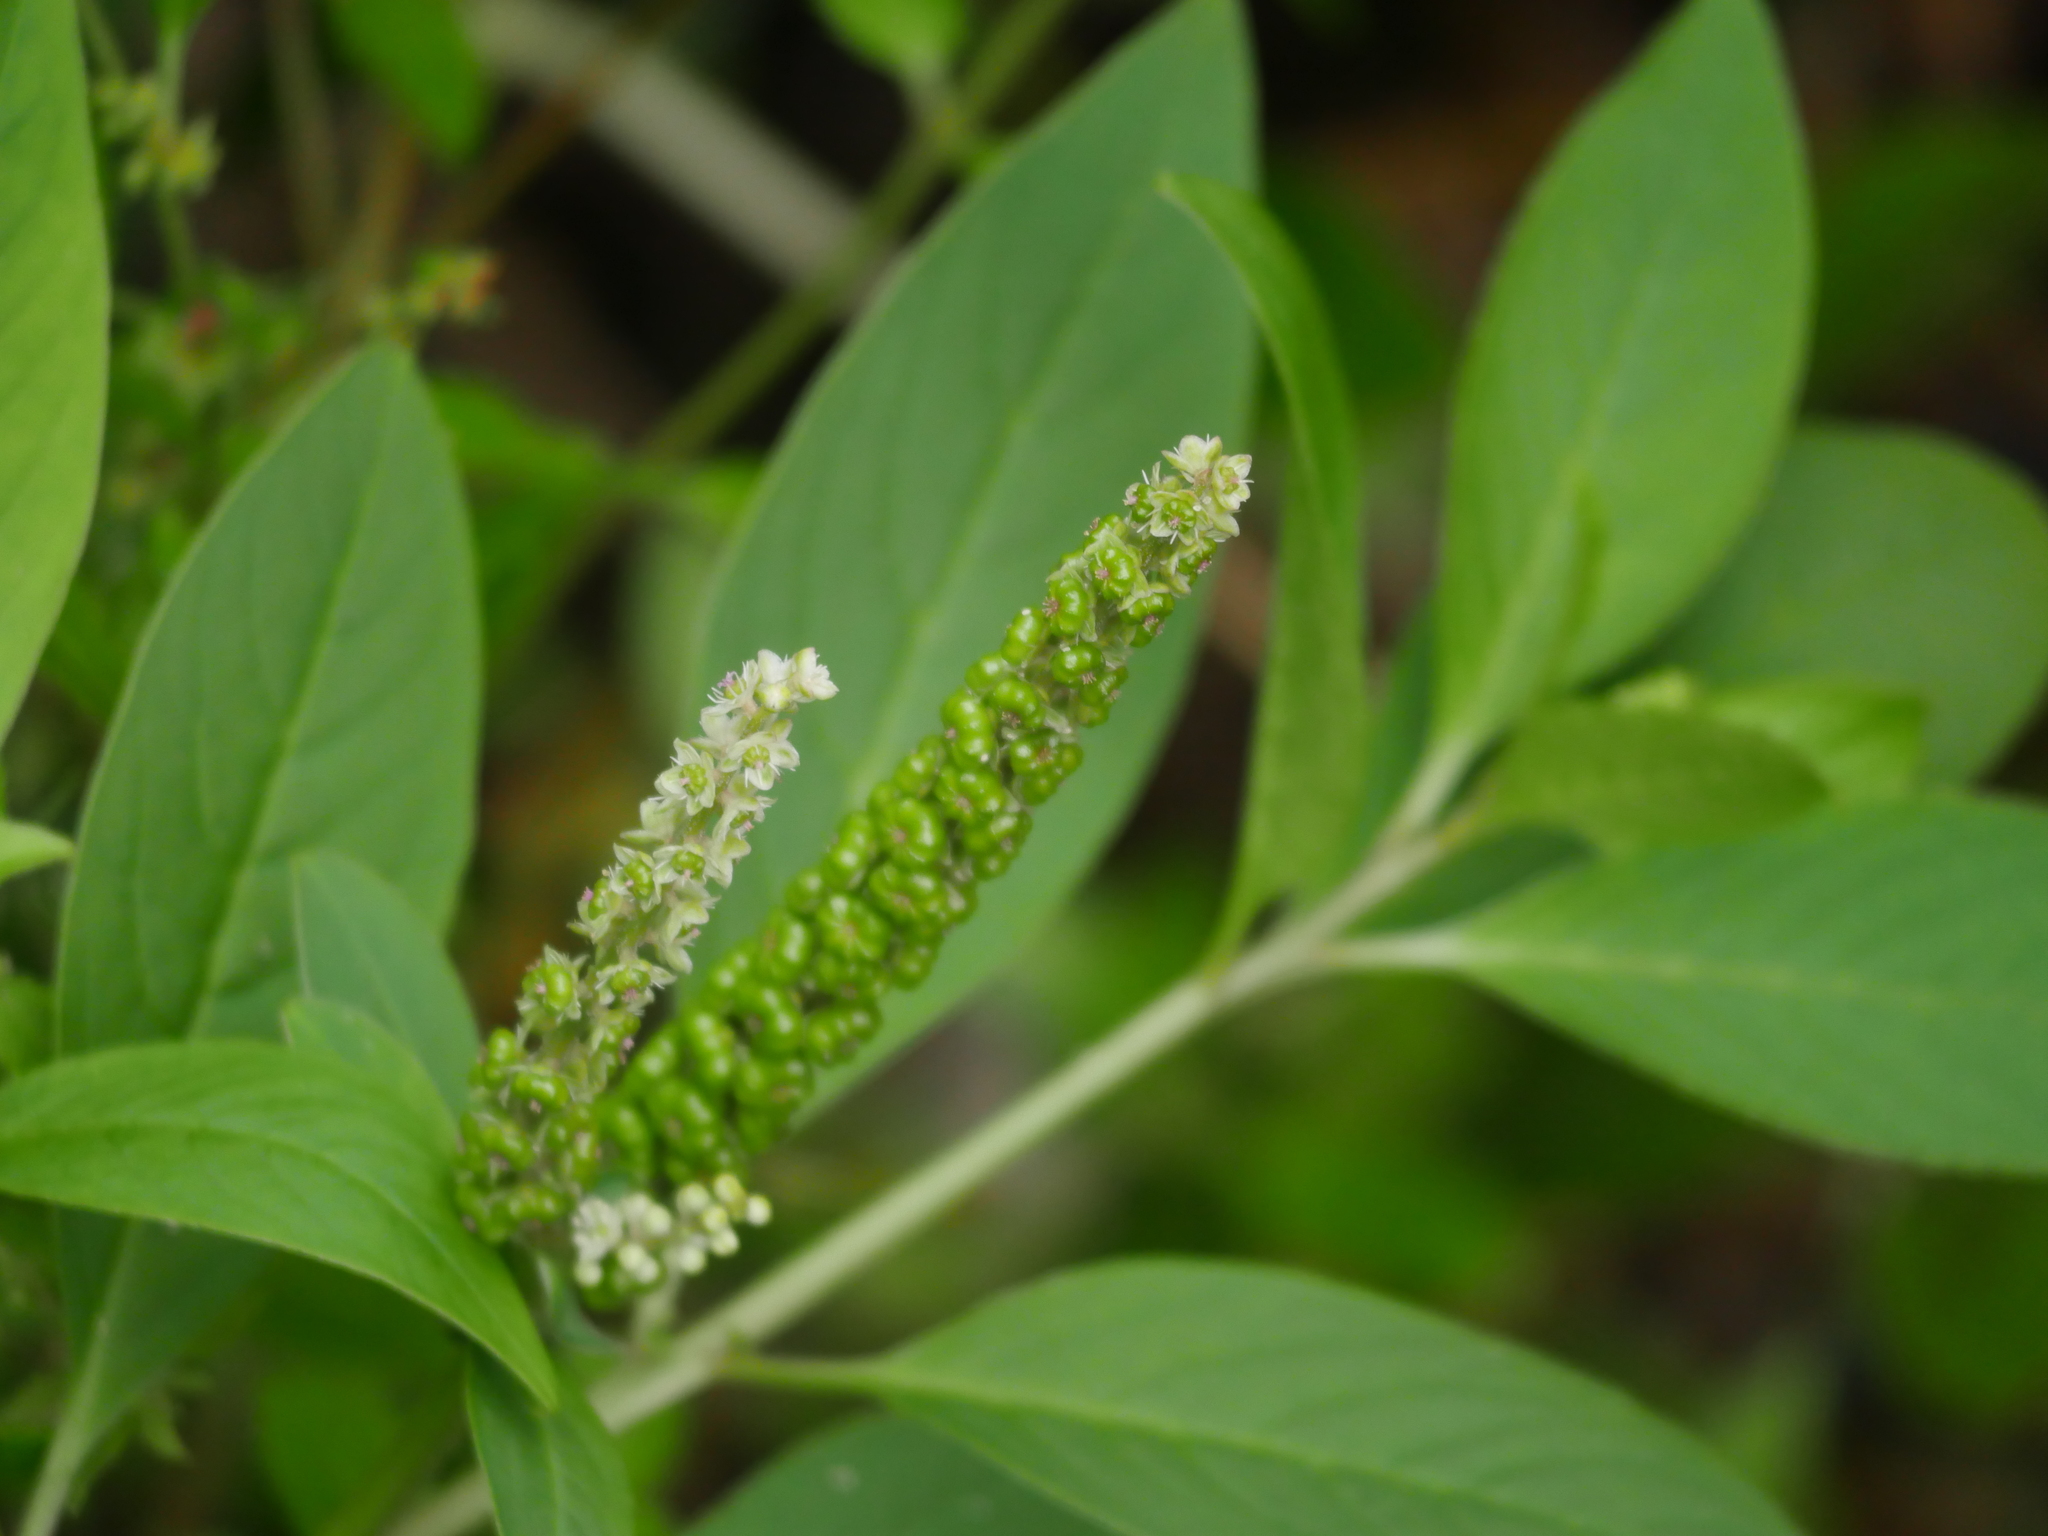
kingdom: Plantae
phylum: Tracheophyta
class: Magnoliopsida
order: Caryophyllales
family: Phytolaccaceae
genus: Phytolacca
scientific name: Phytolacca icosandra
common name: Button pokeweed
